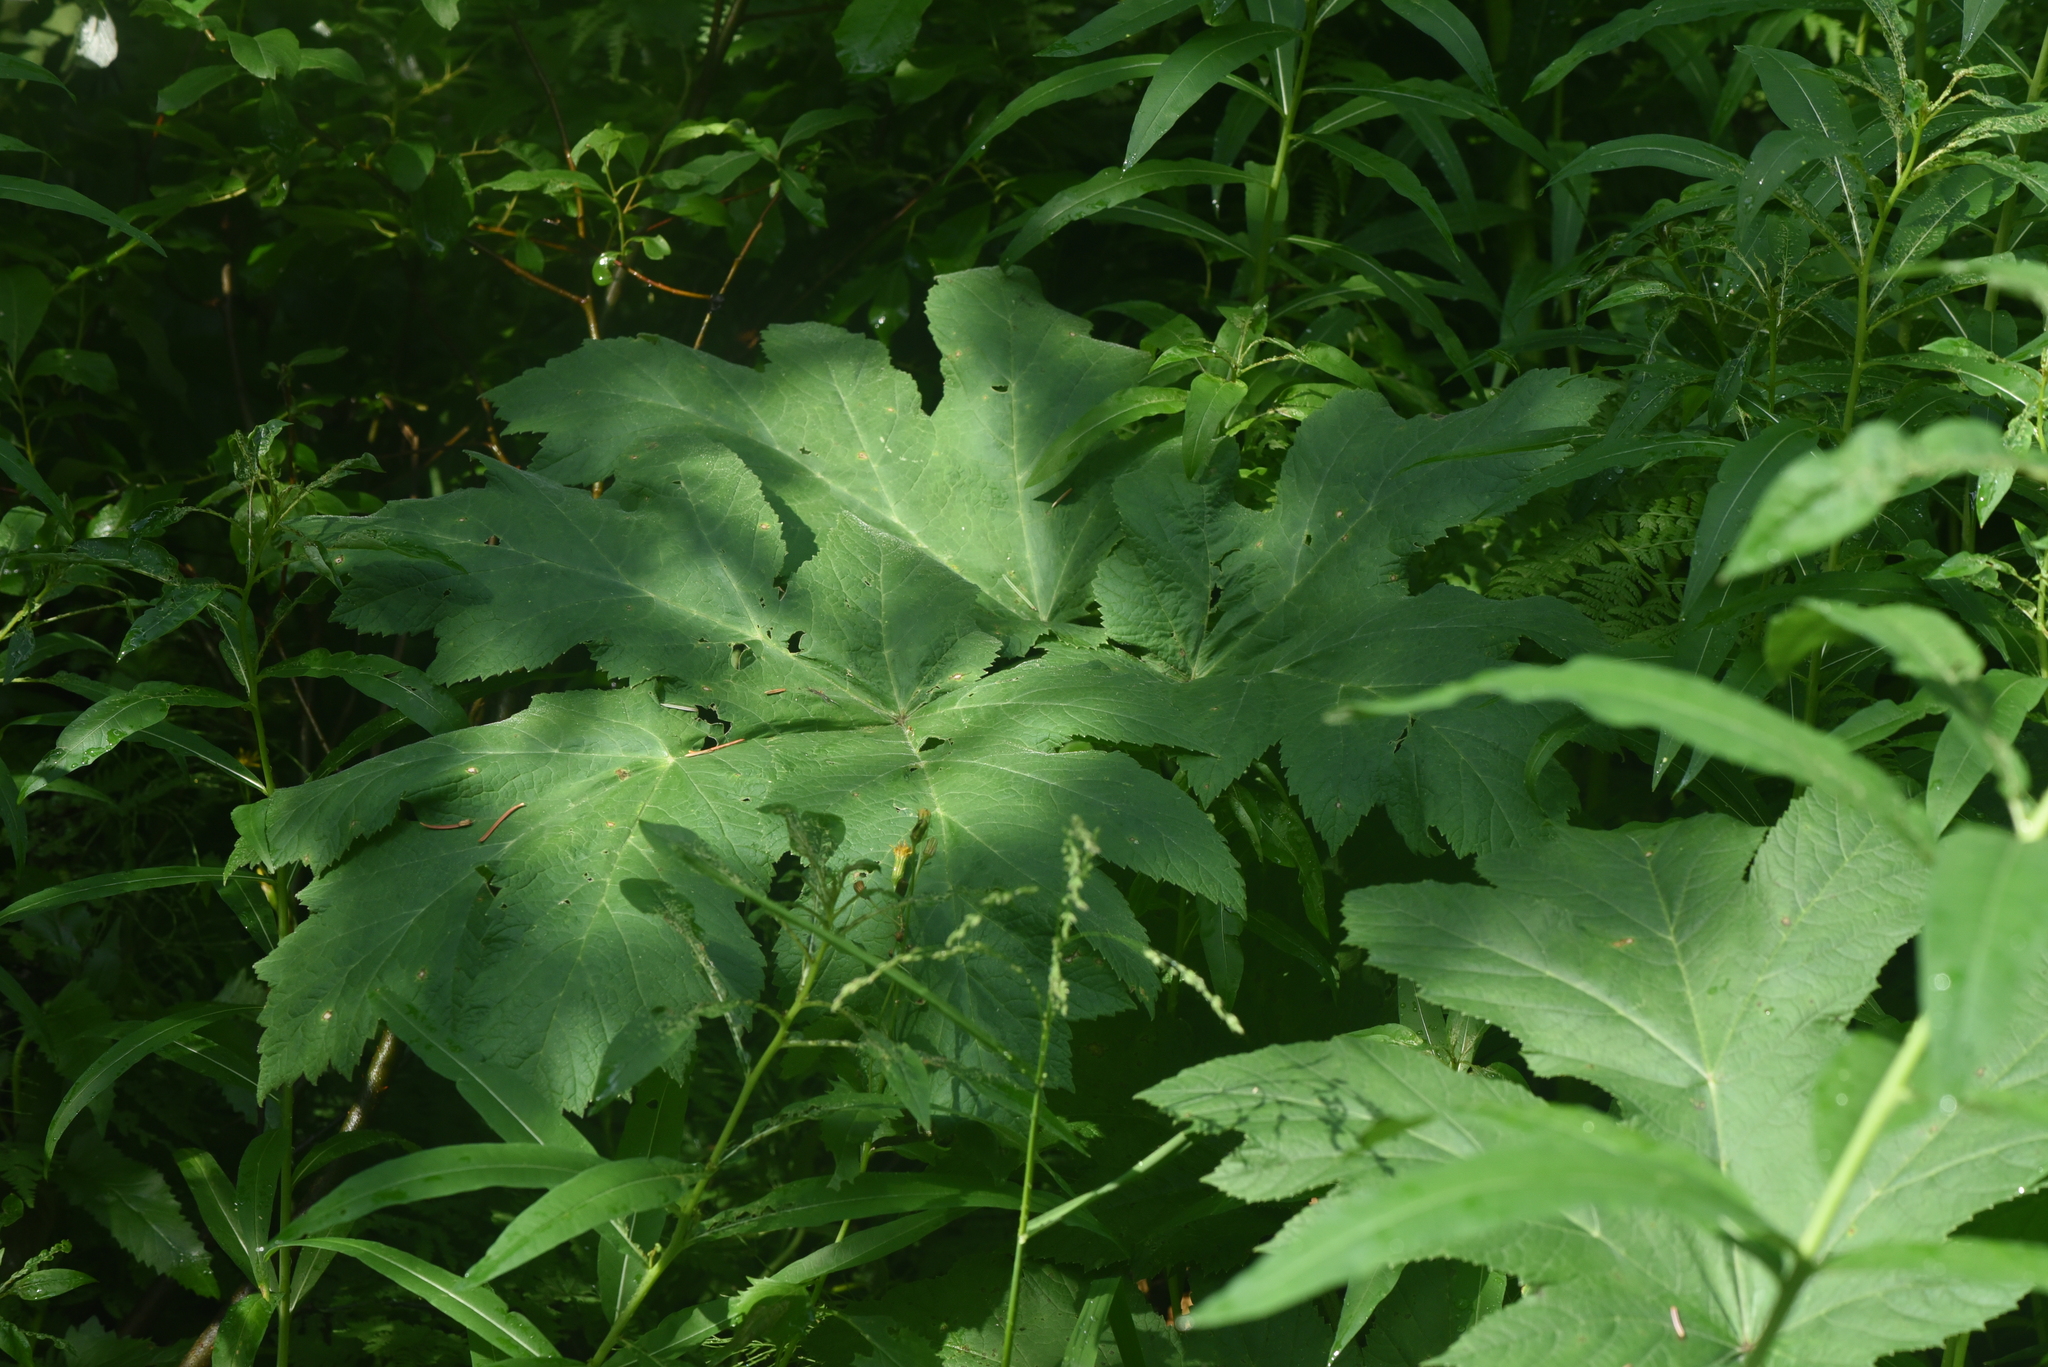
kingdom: Plantae
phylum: Tracheophyta
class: Magnoliopsida
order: Apiales
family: Apiaceae
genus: Heracleum
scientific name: Heracleum maximum
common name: American cow parsnip
